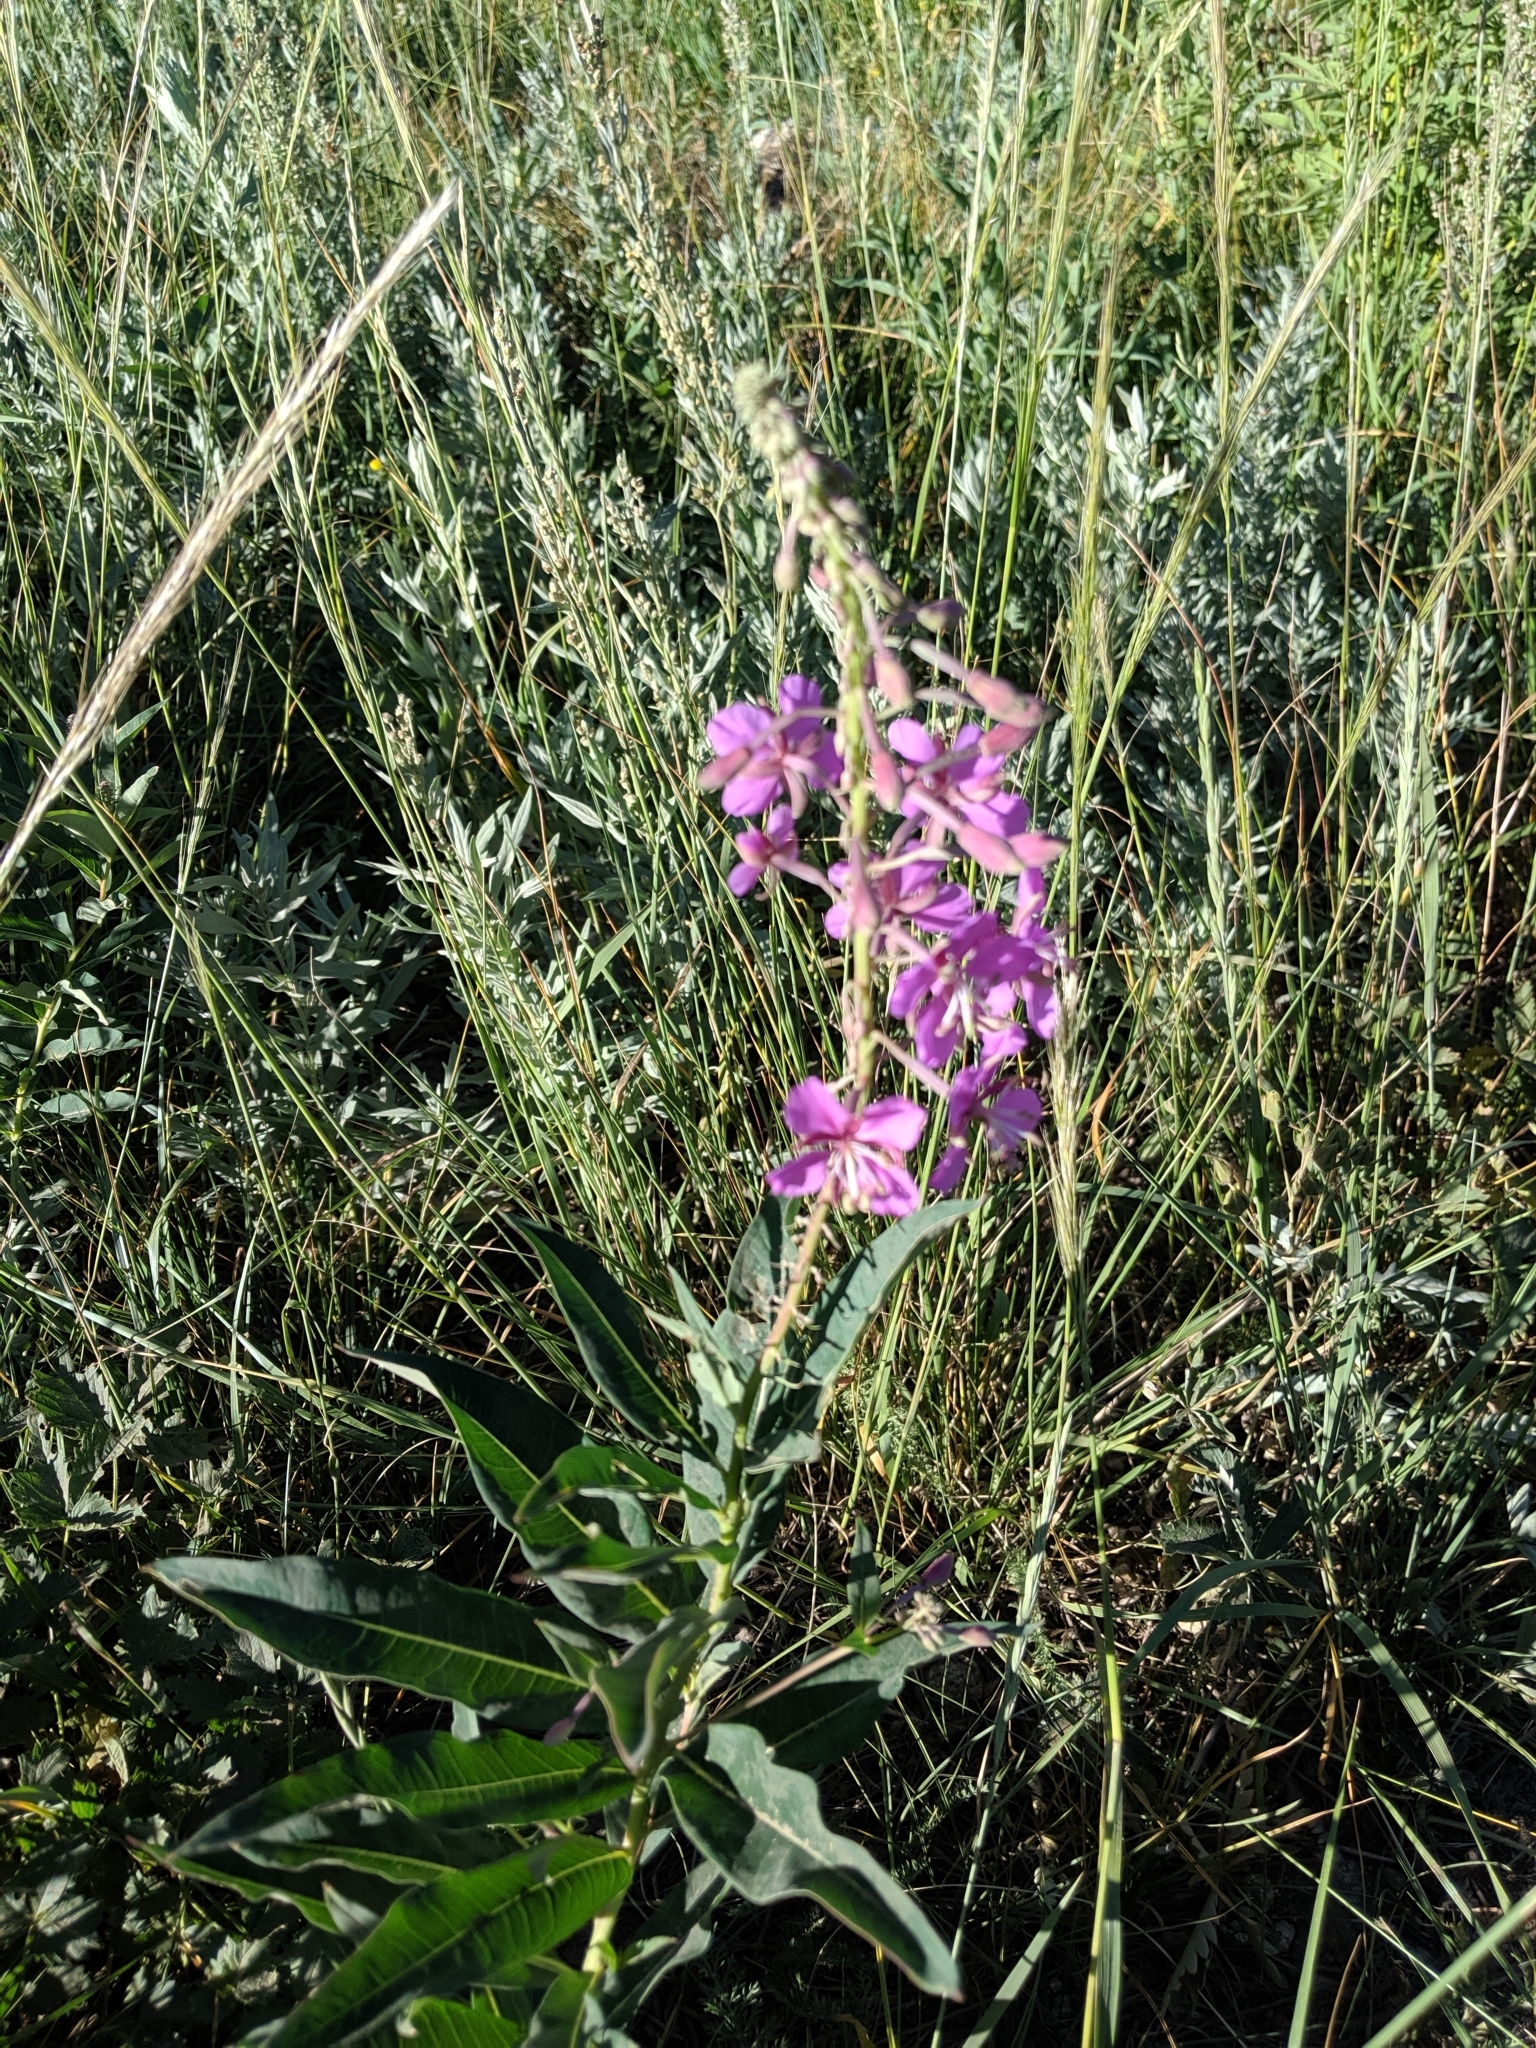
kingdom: Plantae
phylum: Tracheophyta
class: Magnoliopsida
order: Myrtales
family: Onagraceae
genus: Chamaenerion
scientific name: Chamaenerion angustifolium
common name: Fireweed
